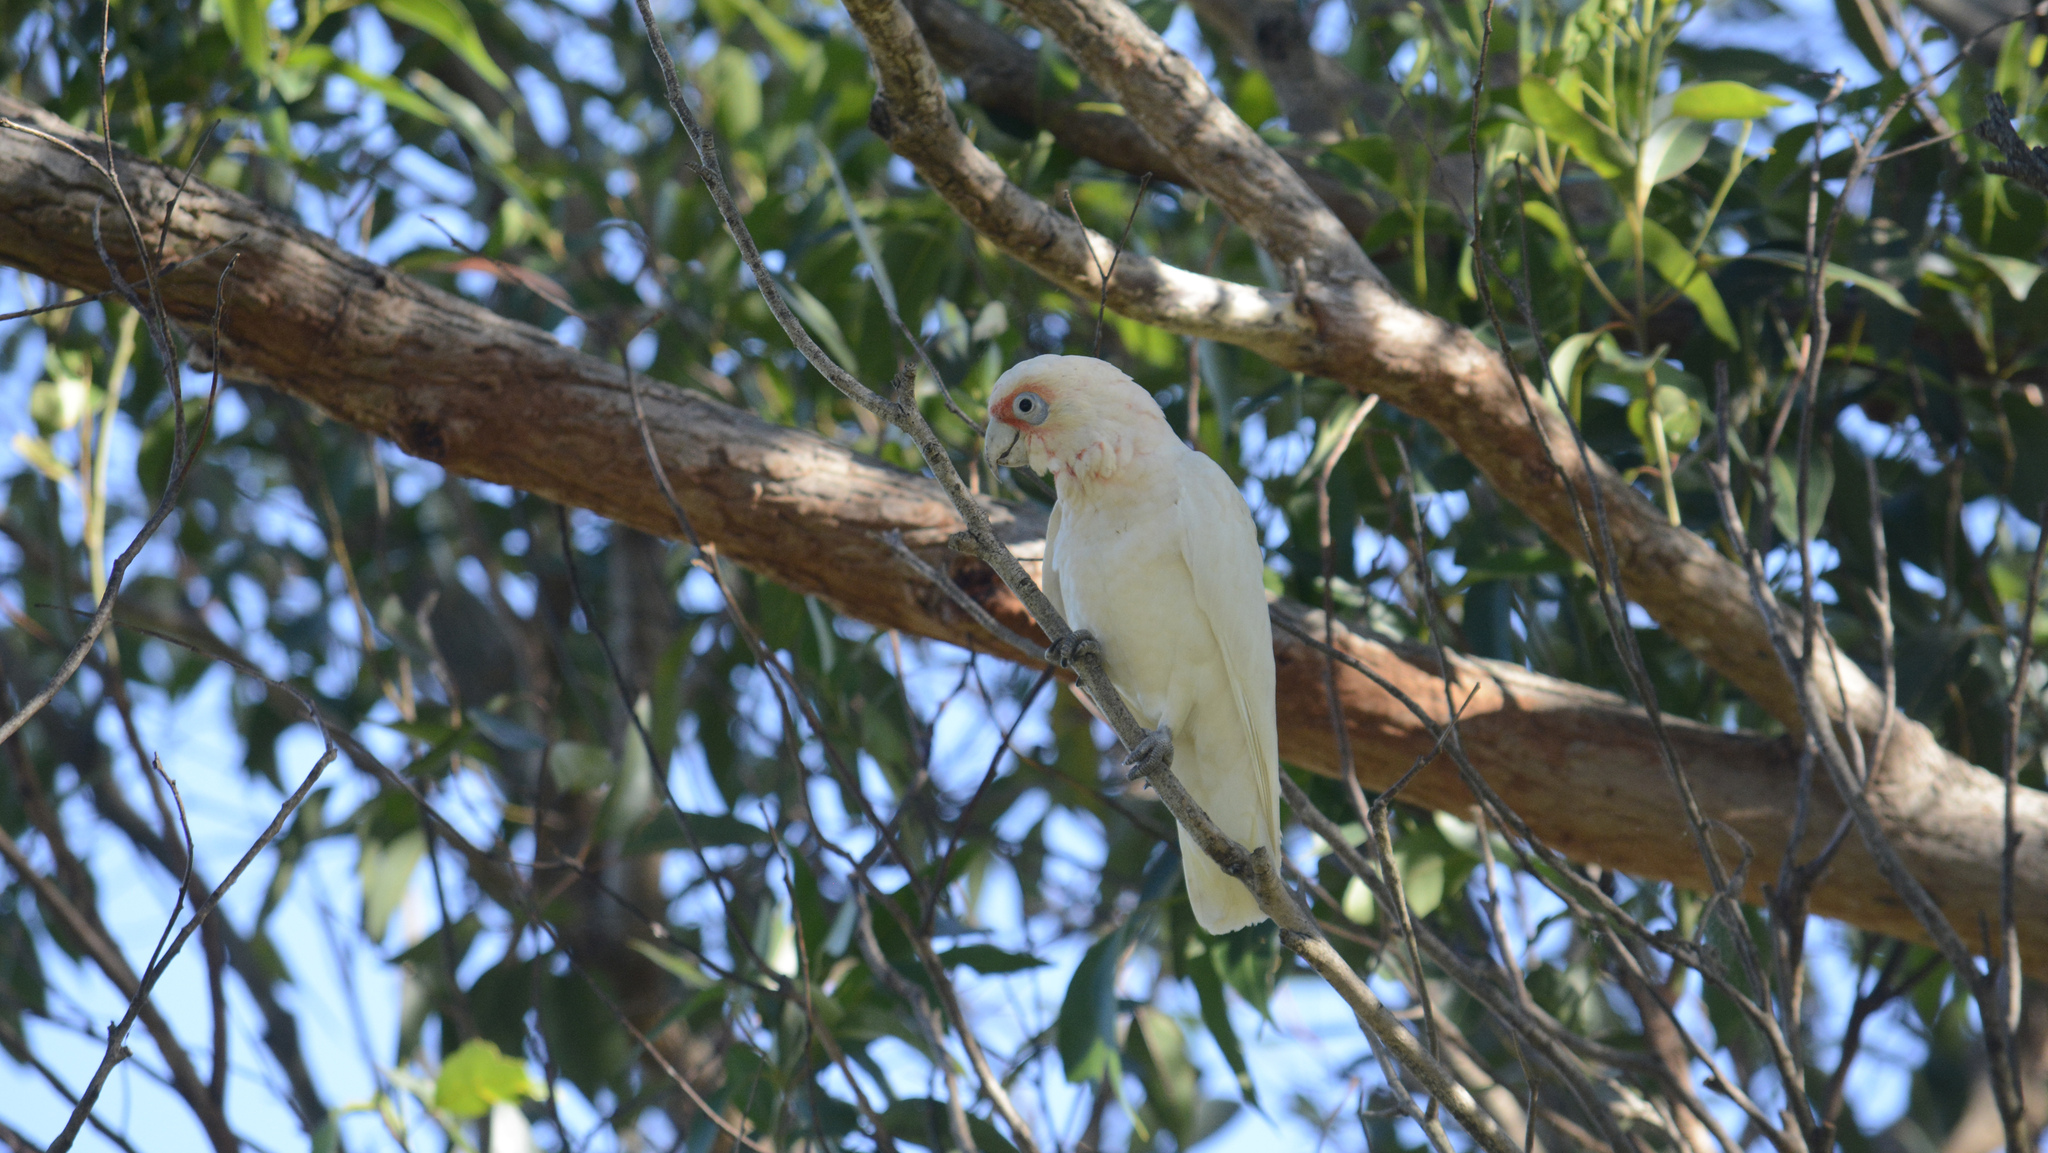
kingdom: Animalia
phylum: Chordata
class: Aves
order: Psittaciformes
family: Psittacidae
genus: Cacatua
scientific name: Cacatua tenuirostris
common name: Long-billed corella
